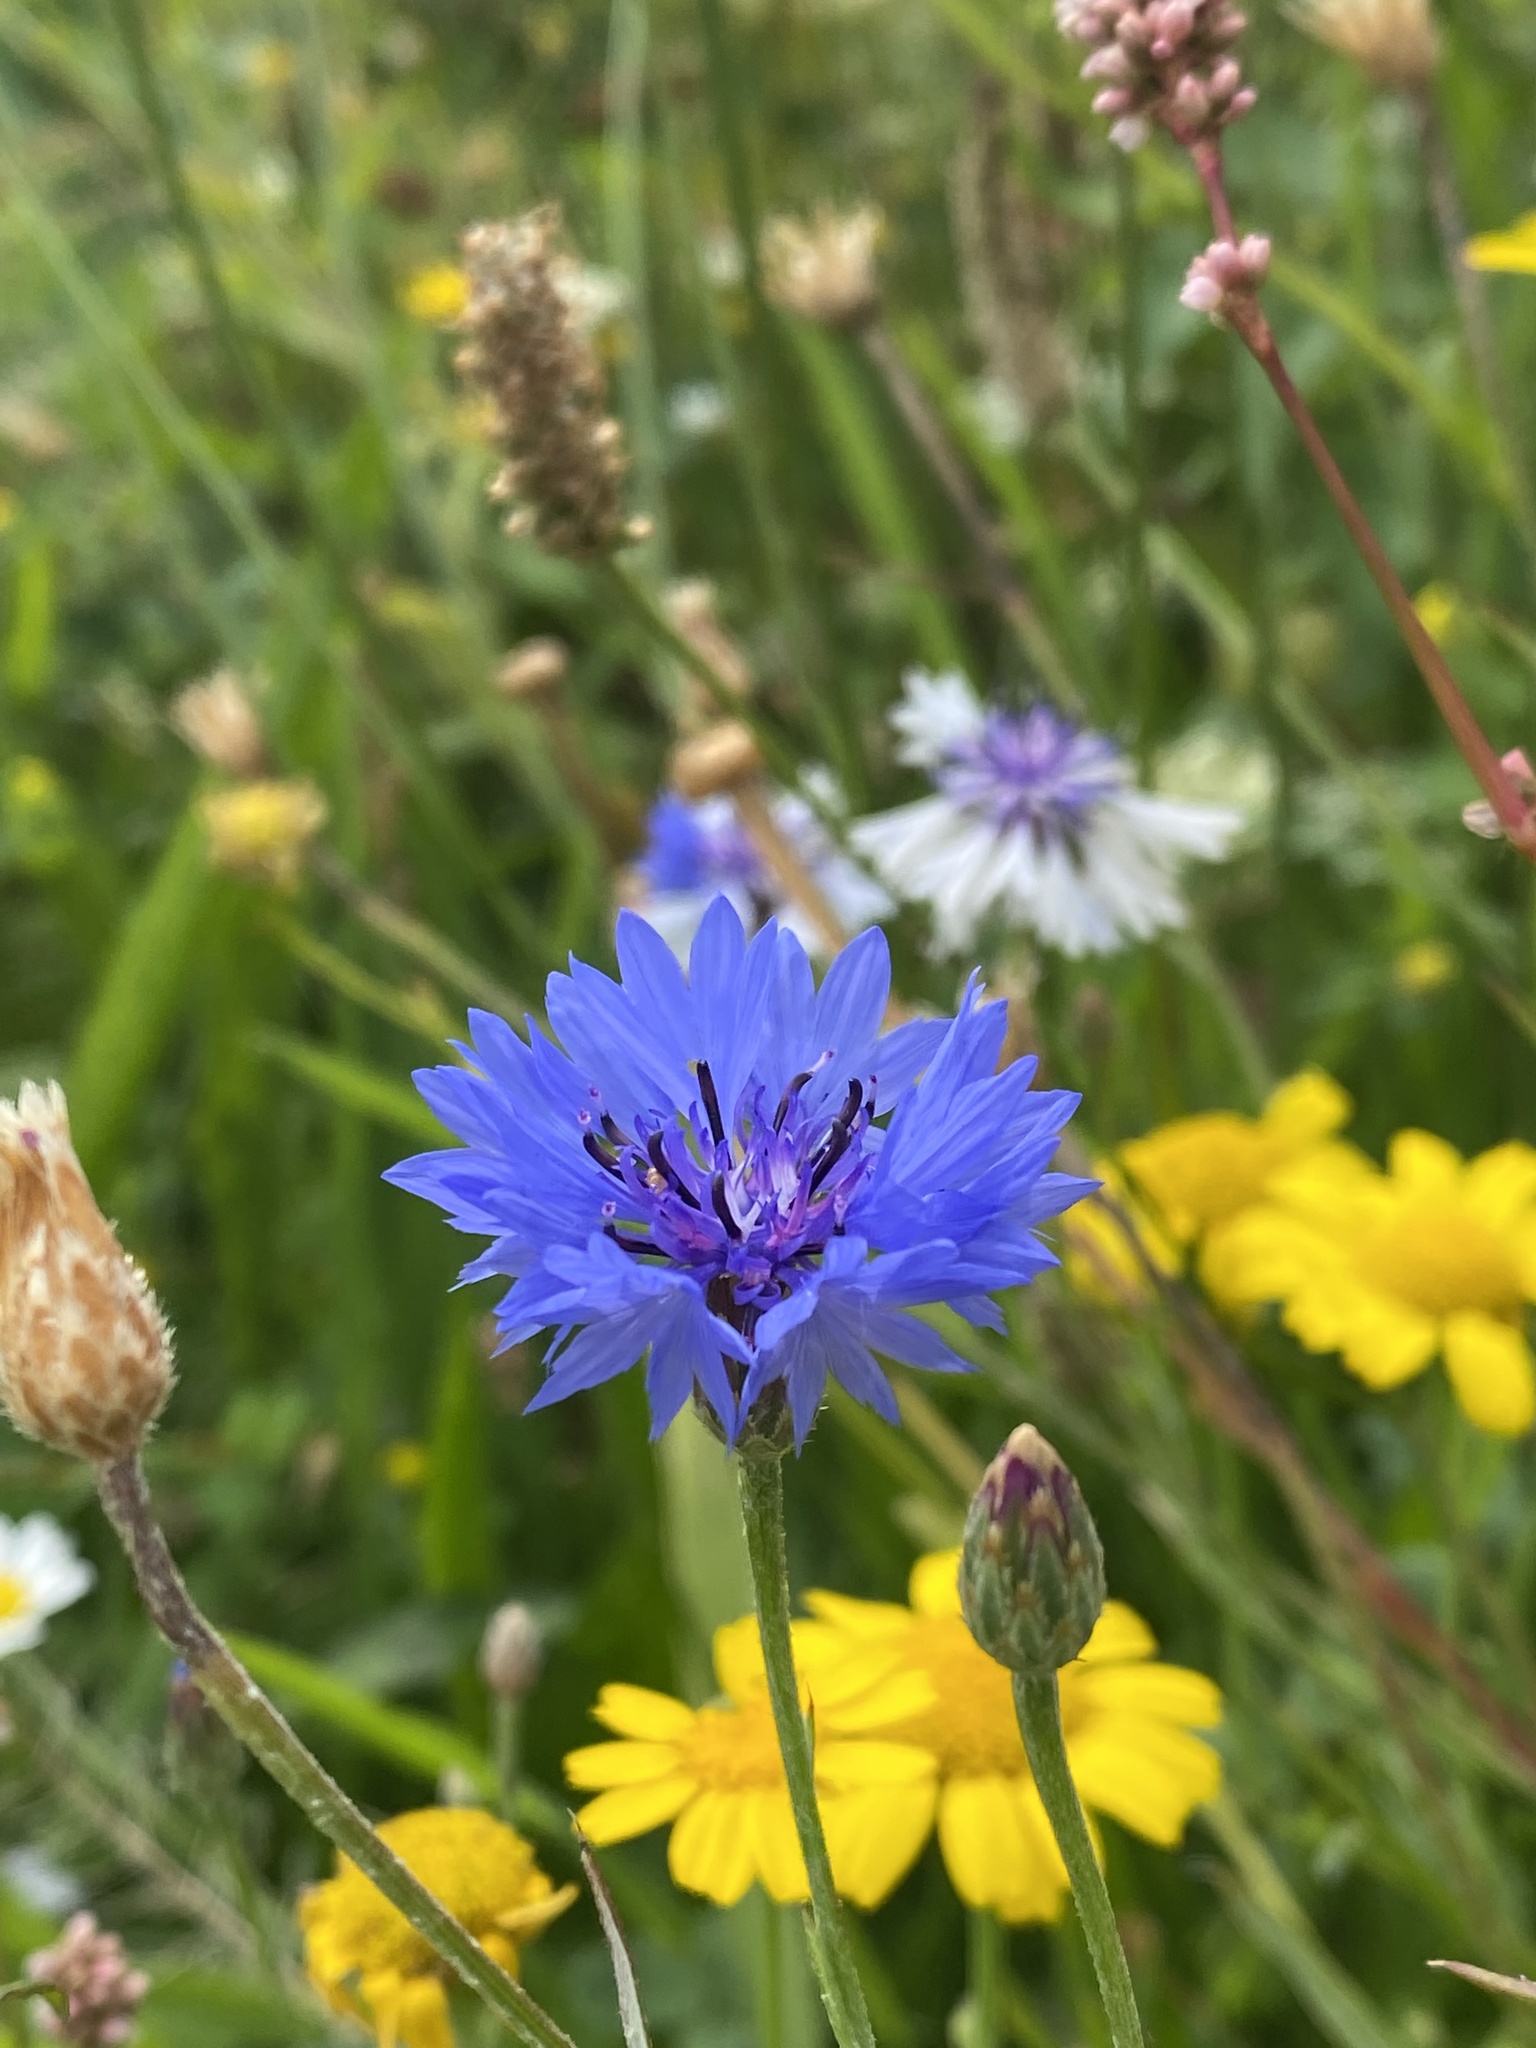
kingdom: Plantae
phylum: Tracheophyta
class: Magnoliopsida
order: Asterales
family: Asteraceae
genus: Centaurea
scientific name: Centaurea cyanus
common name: Cornflower
